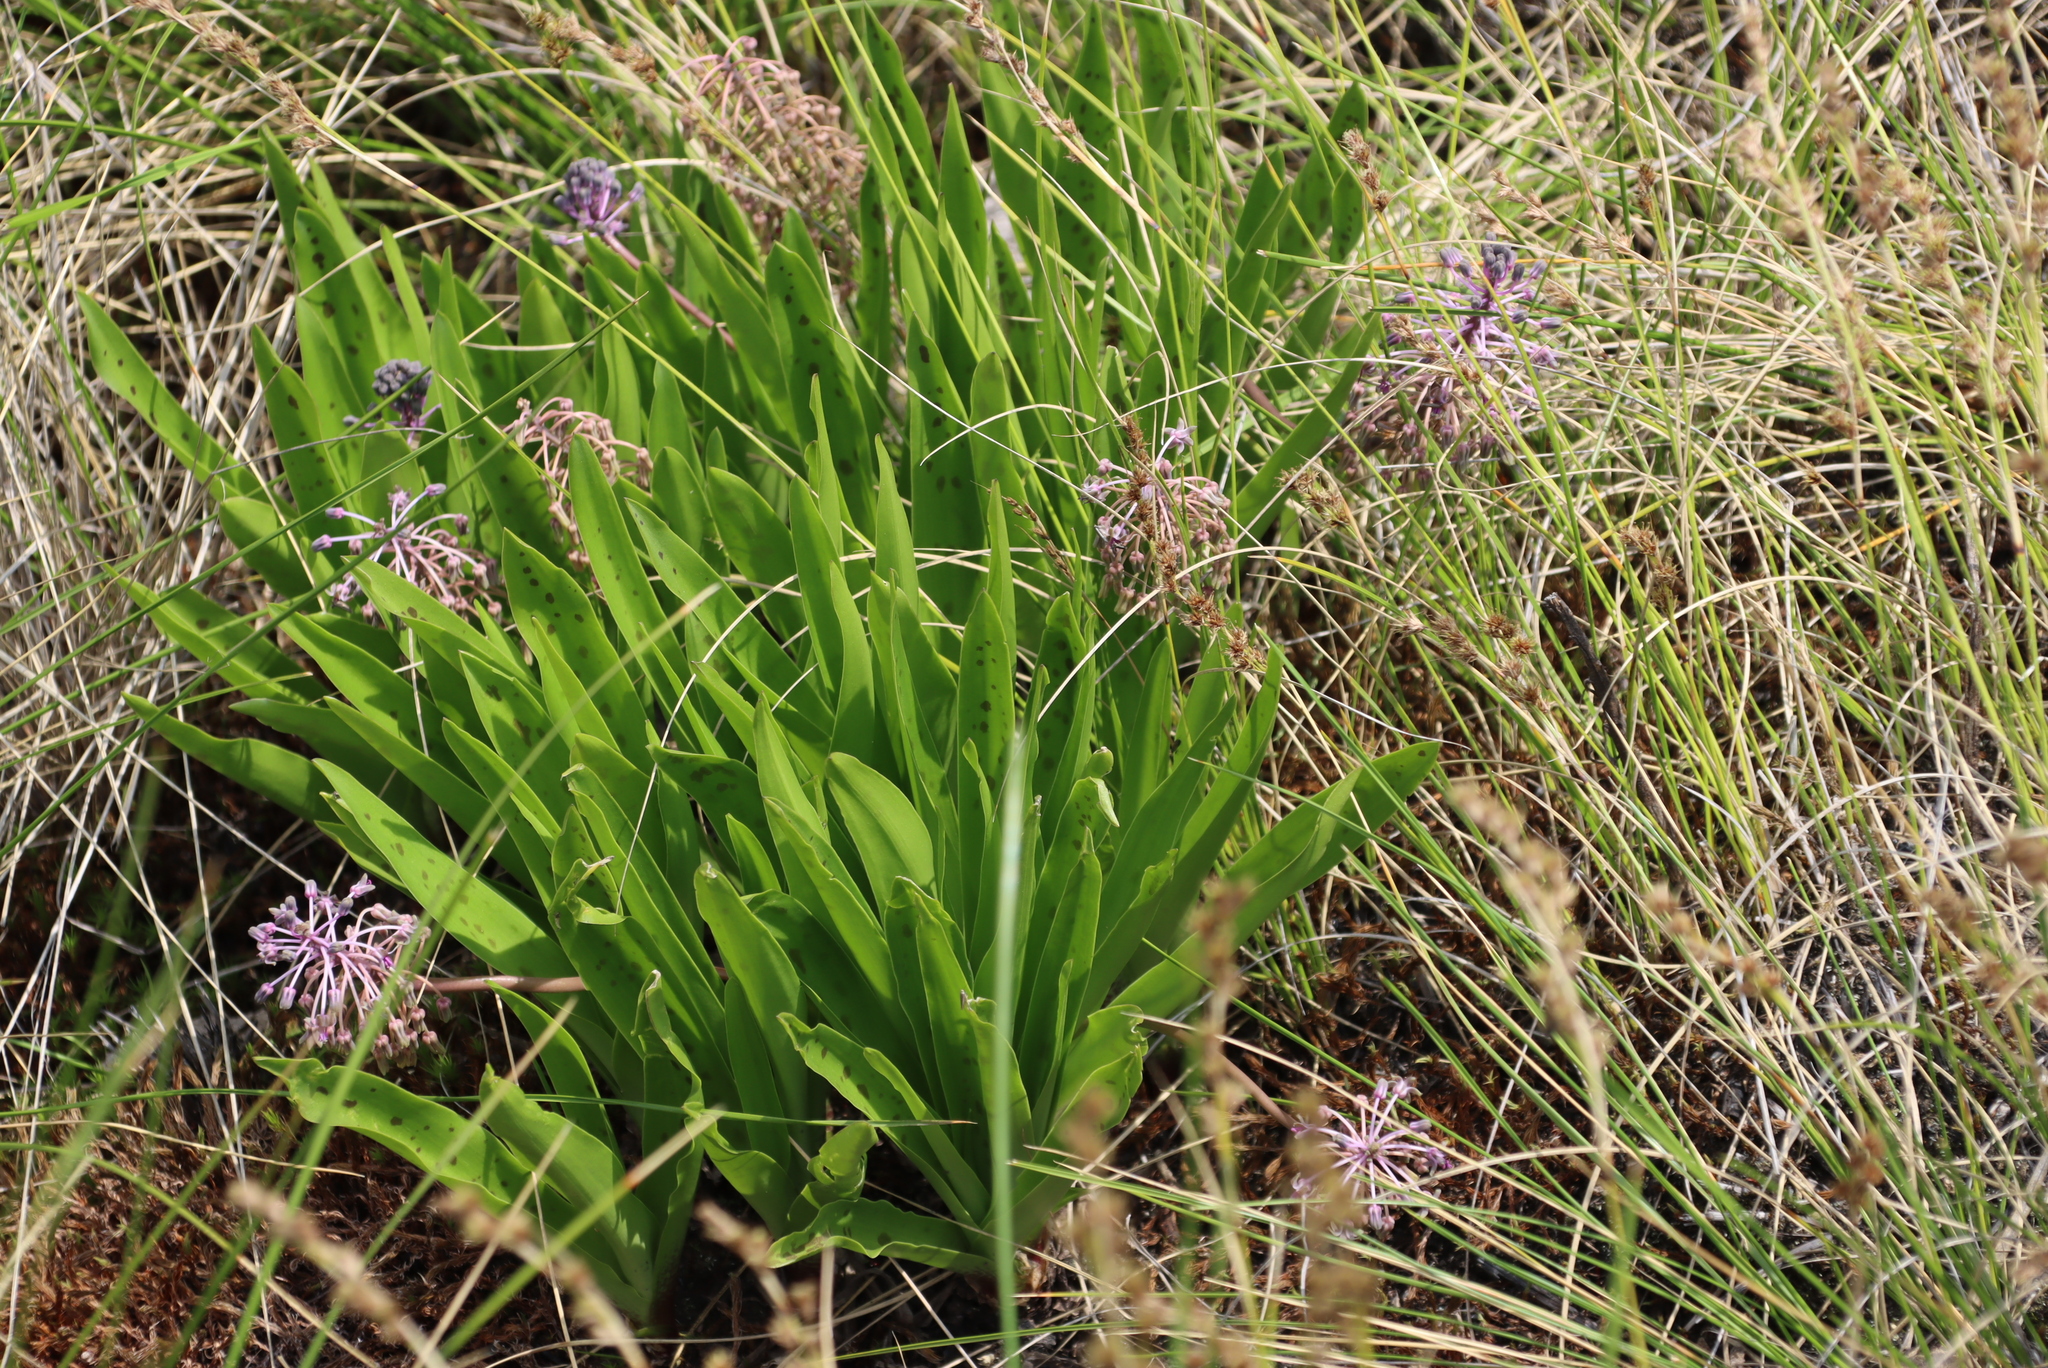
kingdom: Plantae
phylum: Tracheophyta
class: Liliopsida
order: Asparagales
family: Asparagaceae
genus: Ledebouria
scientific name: Ledebouria cooperi
